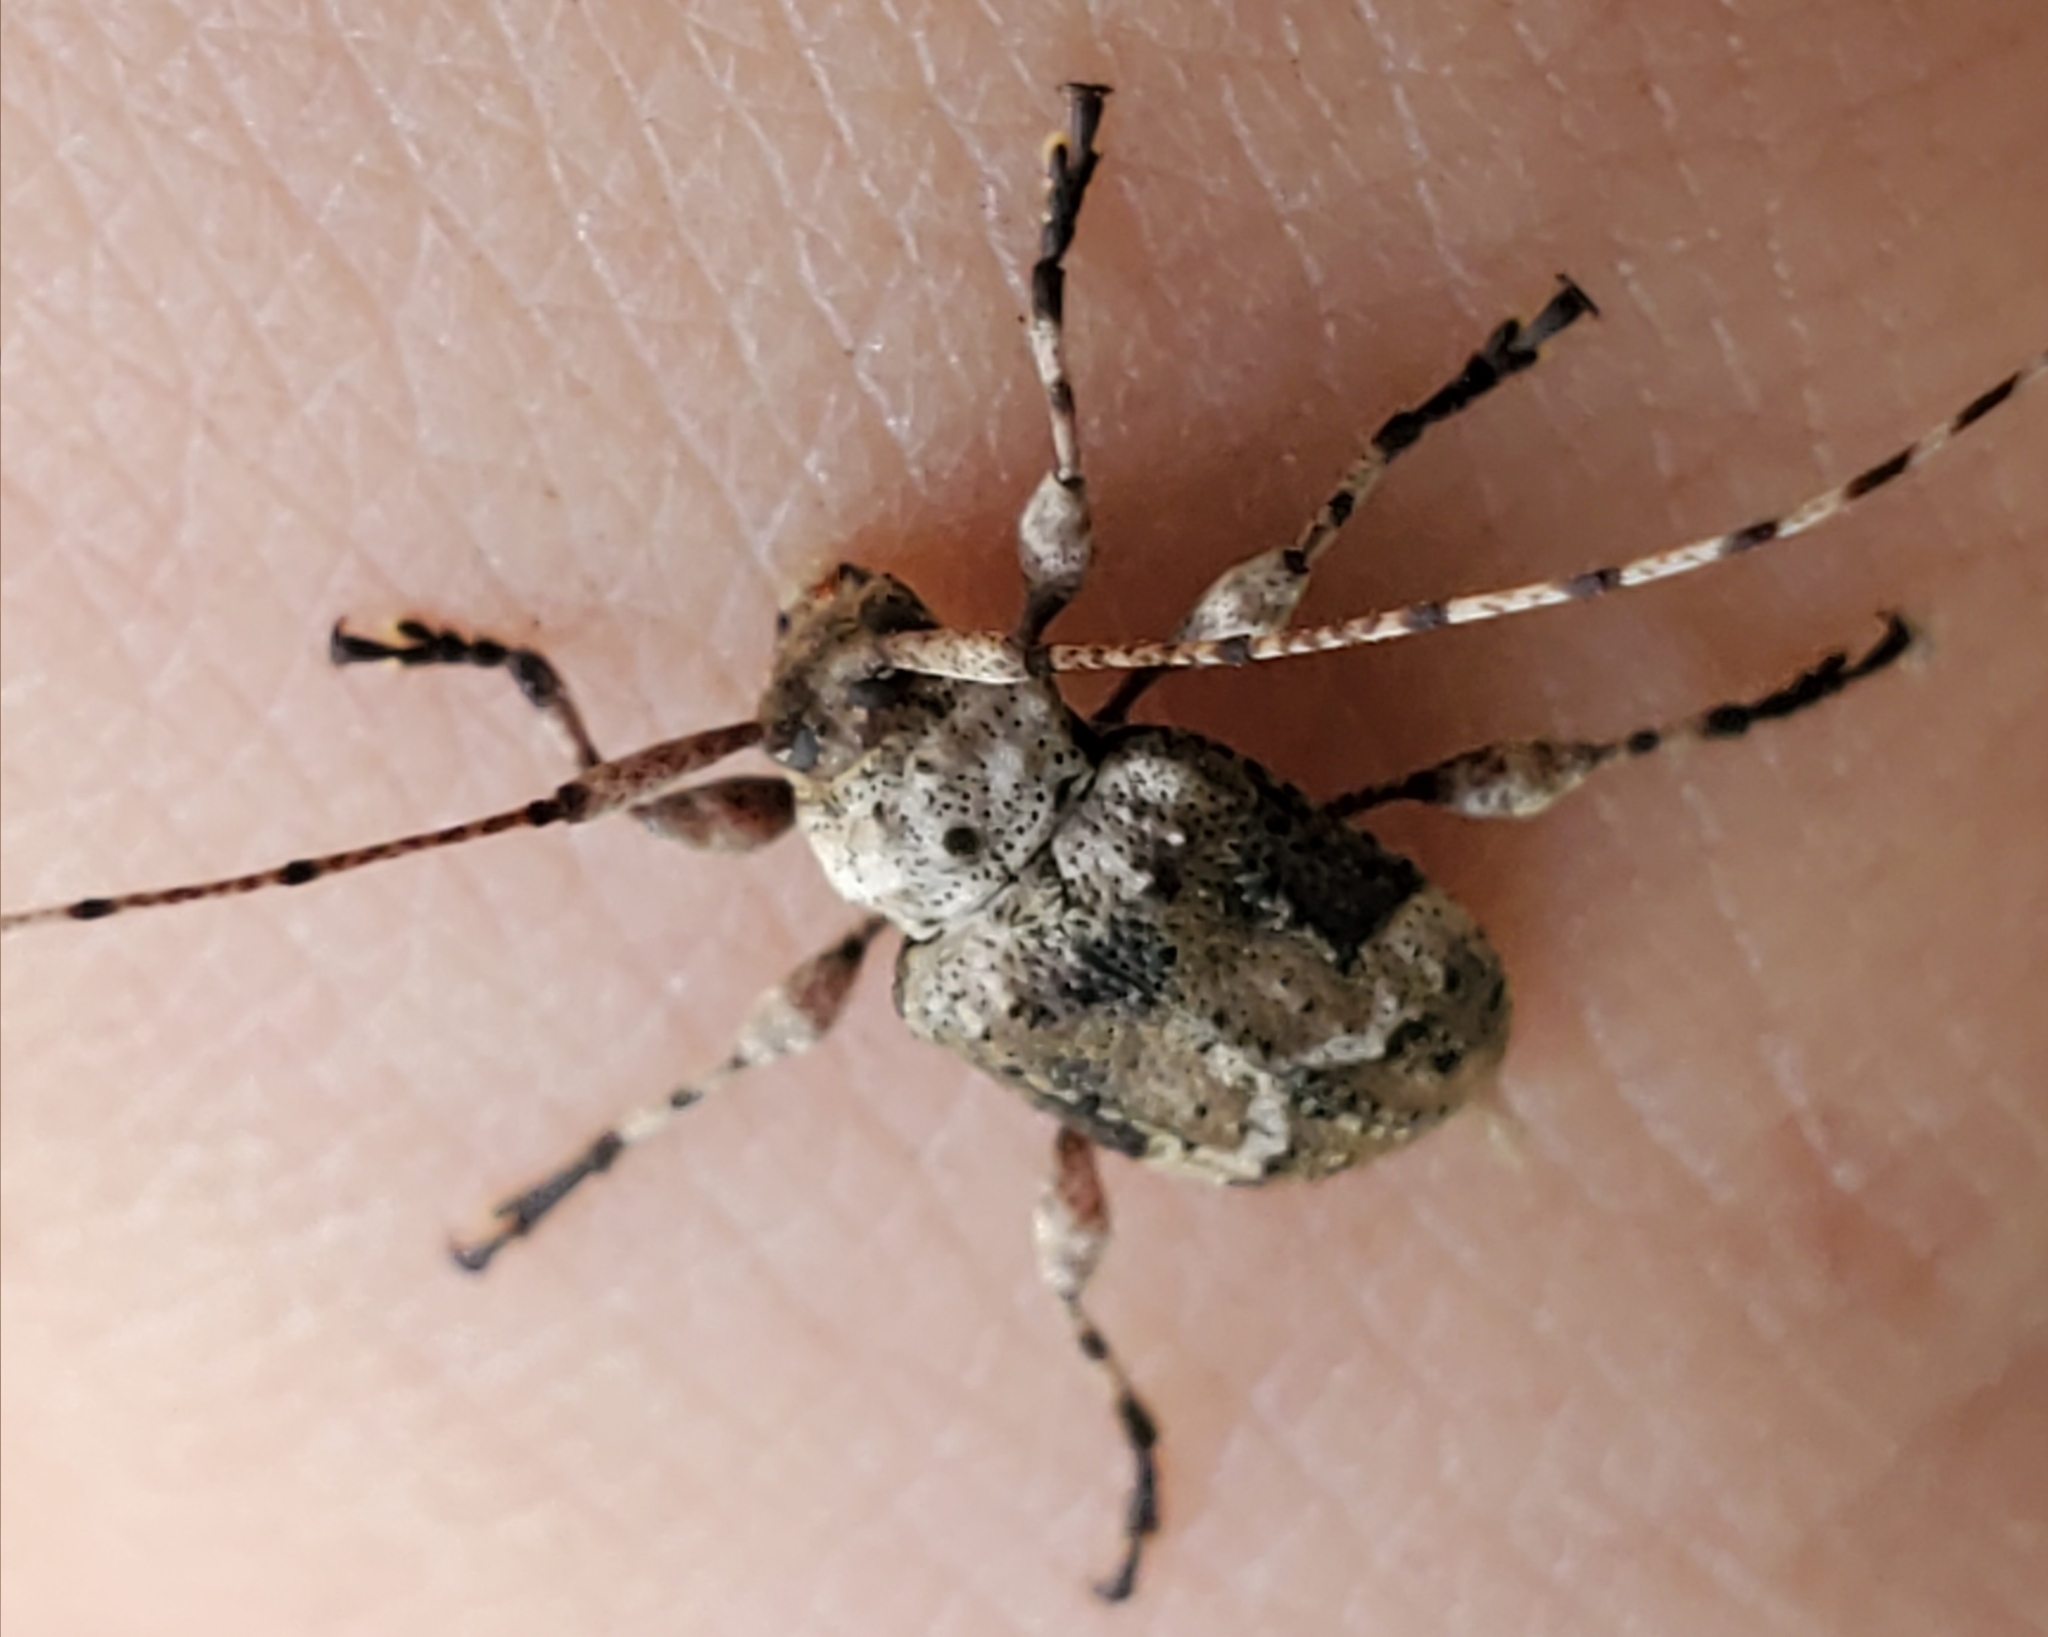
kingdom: Animalia
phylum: Arthropoda
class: Insecta
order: Coleoptera
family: Cerambycidae
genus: Leptostylopsis
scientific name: Leptostylopsis planidorsus
